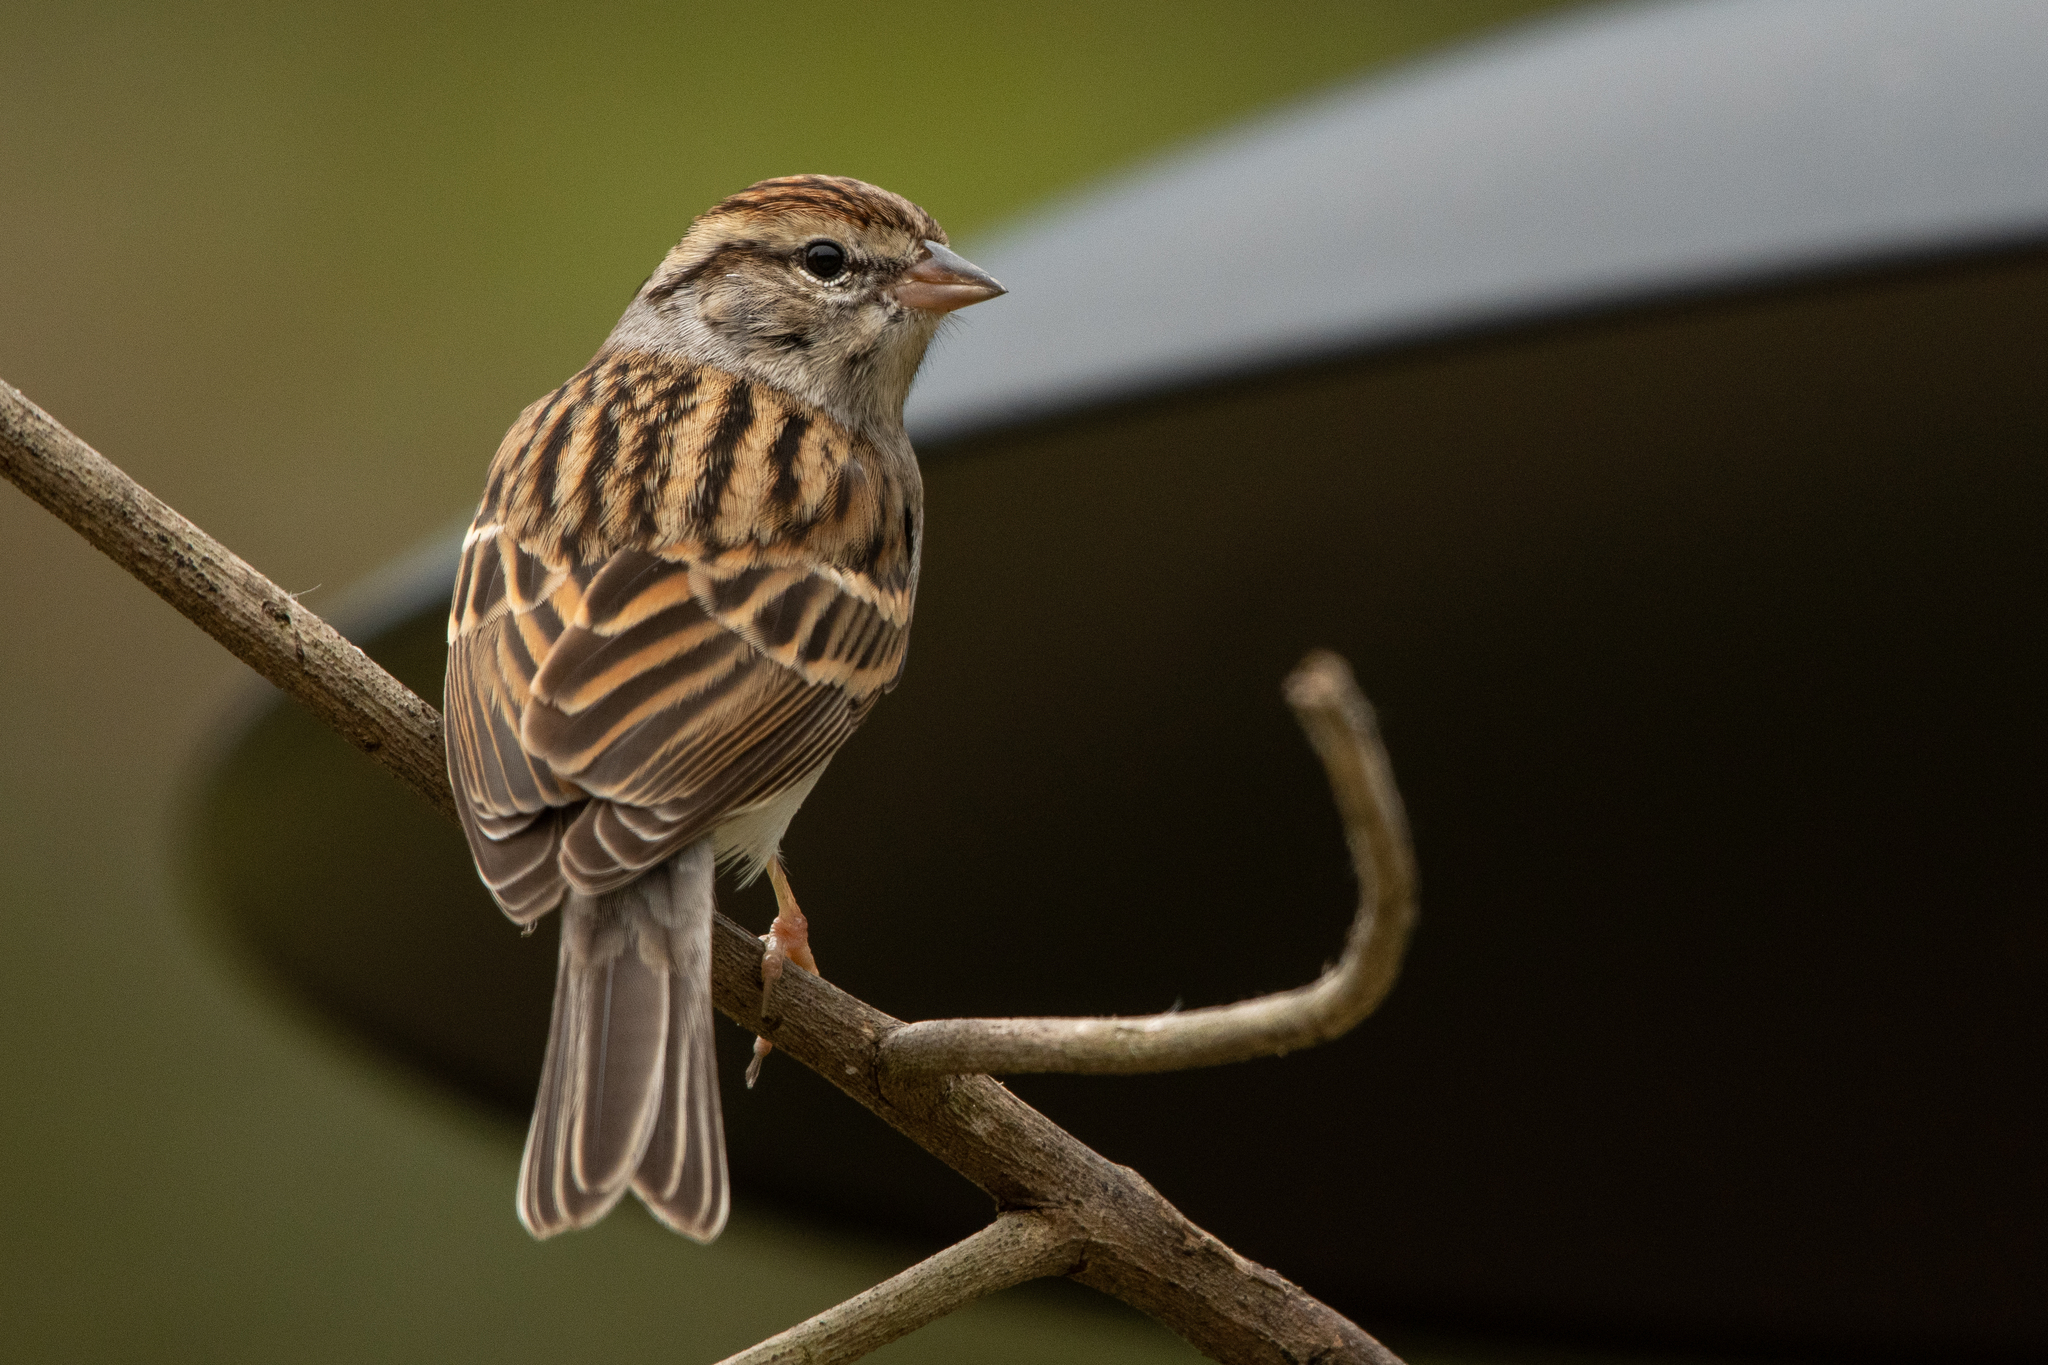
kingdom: Animalia
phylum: Chordata
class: Aves
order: Passeriformes
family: Passerellidae
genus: Spizella
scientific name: Spizella passerina
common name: Chipping sparrow
